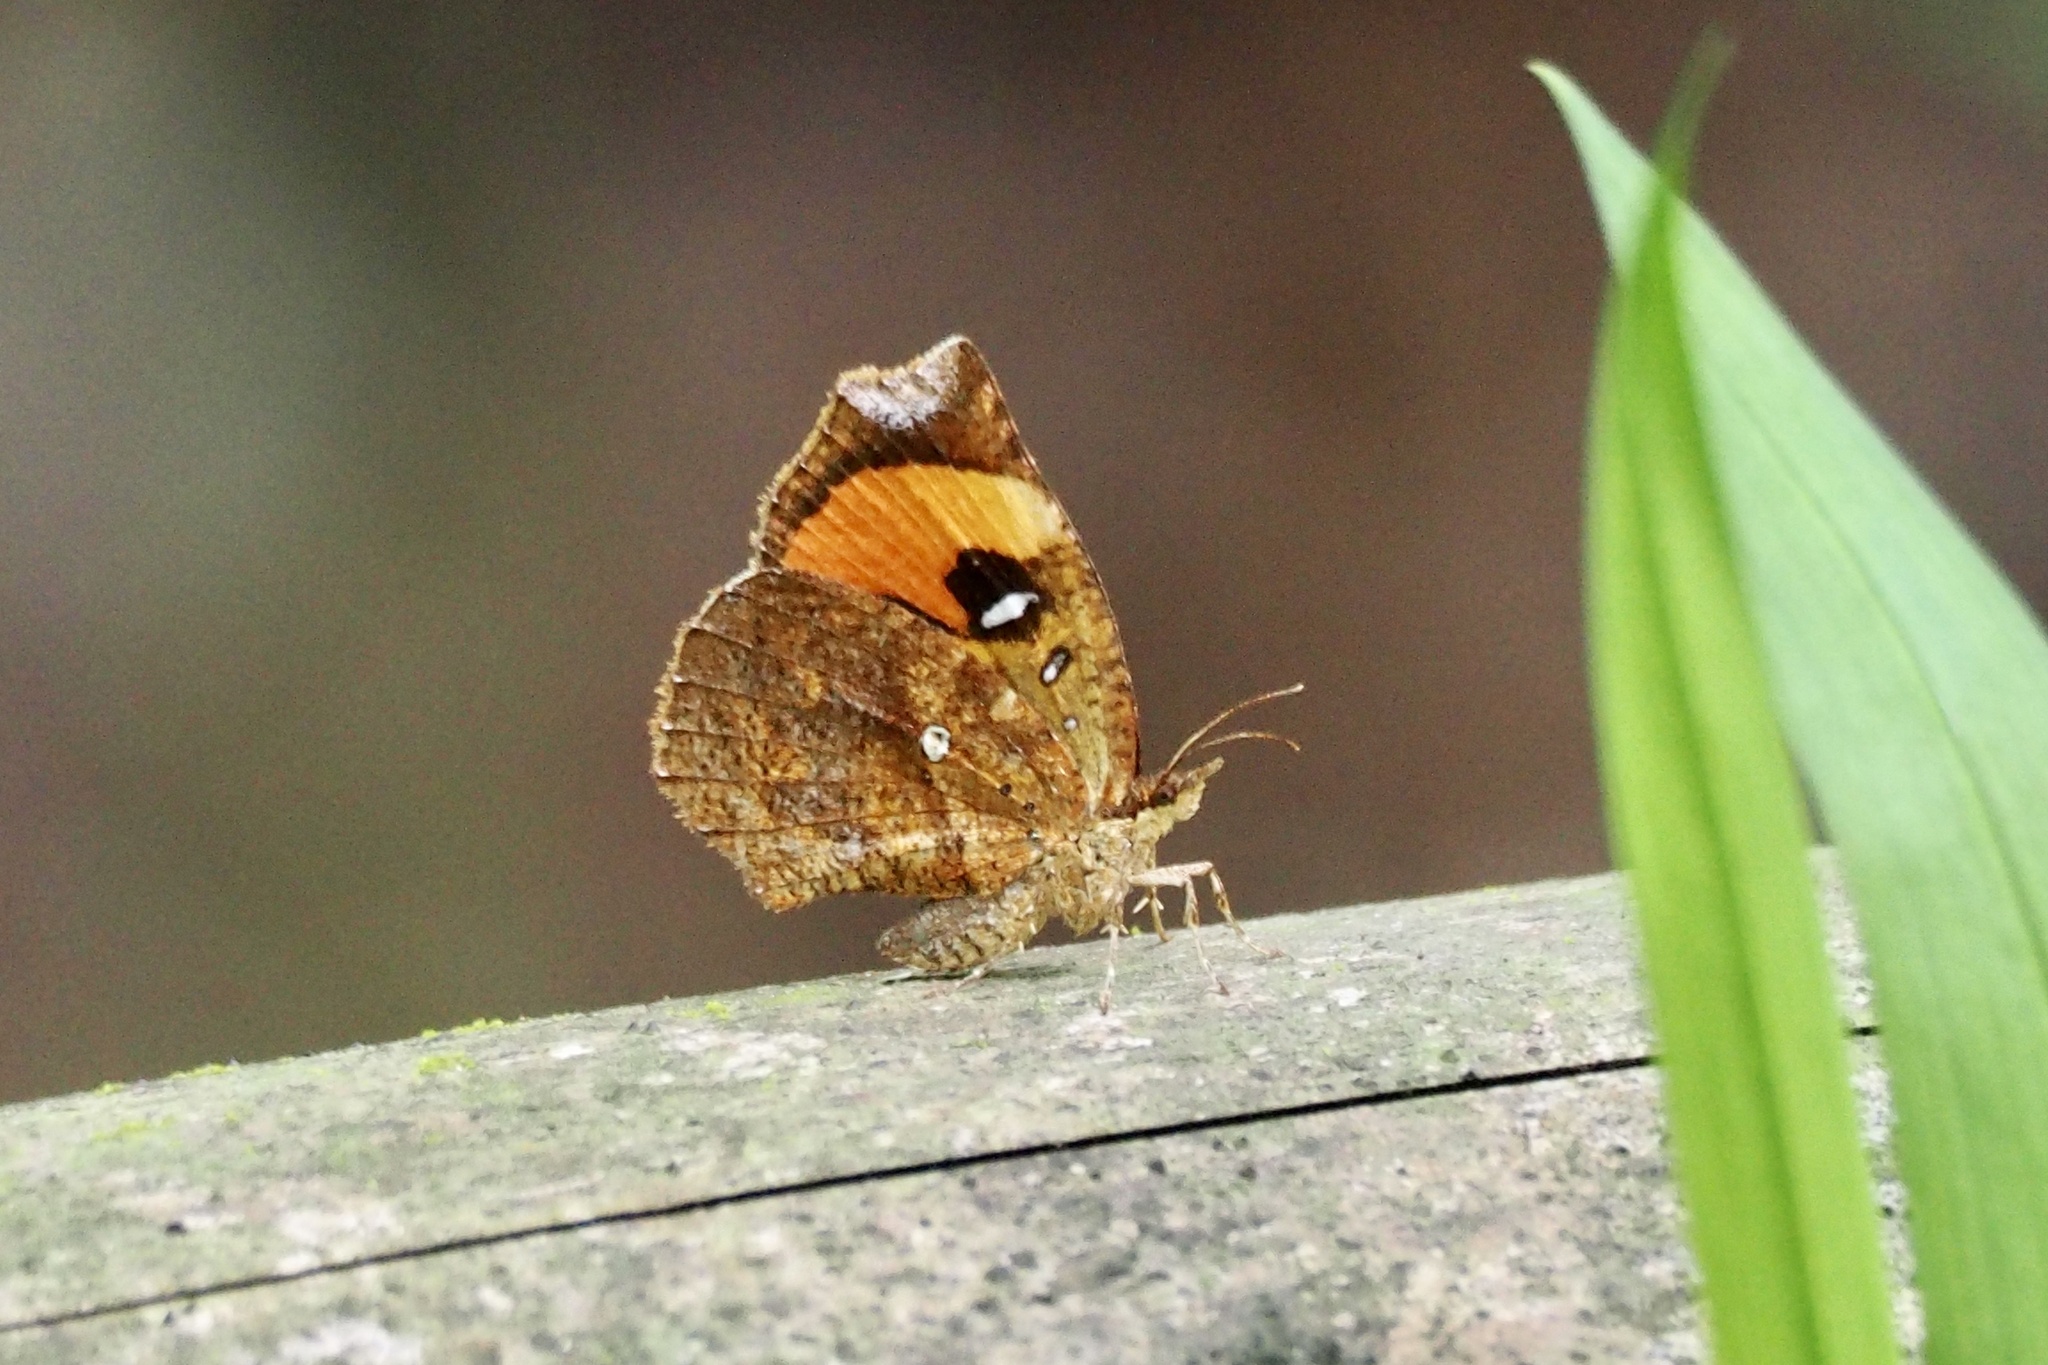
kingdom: Animalia
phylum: Arthropoda
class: Insecta
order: Lepidoptera
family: Callidulidae
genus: Pterodecta
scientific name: Pterodecta felderi
